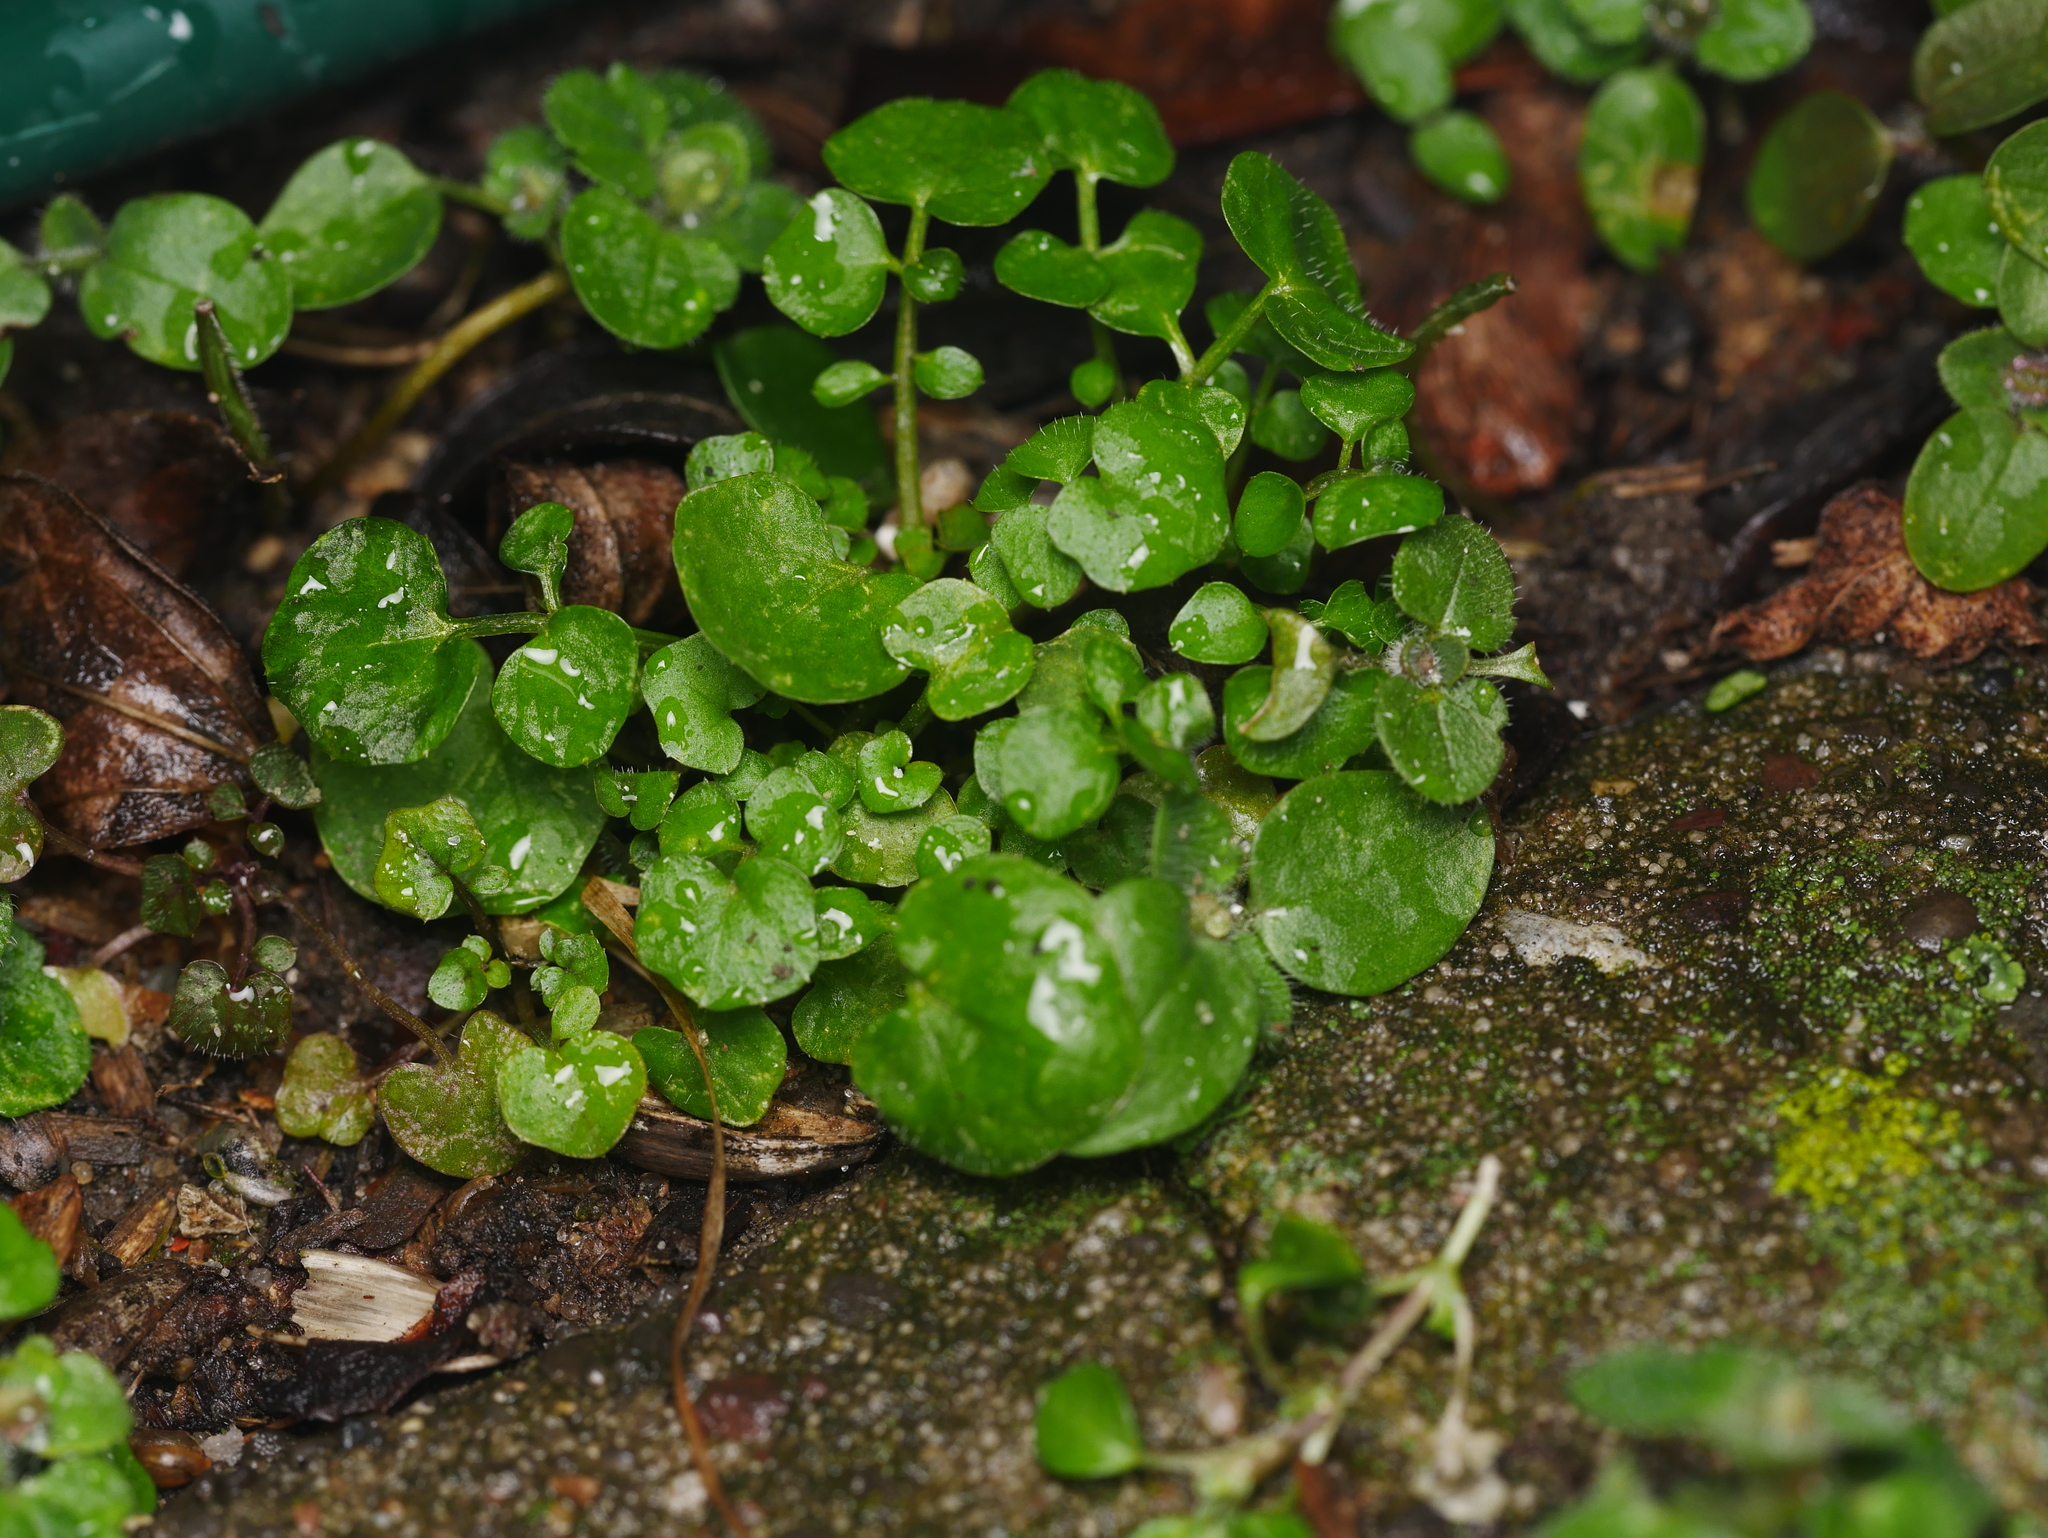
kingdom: Plantae
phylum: Tracheophyta
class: Magnoliopsida
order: Brassicales
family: Brassicaceae
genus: Cardamine
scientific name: Cardamine hirsuta
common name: Hairy bittercress
